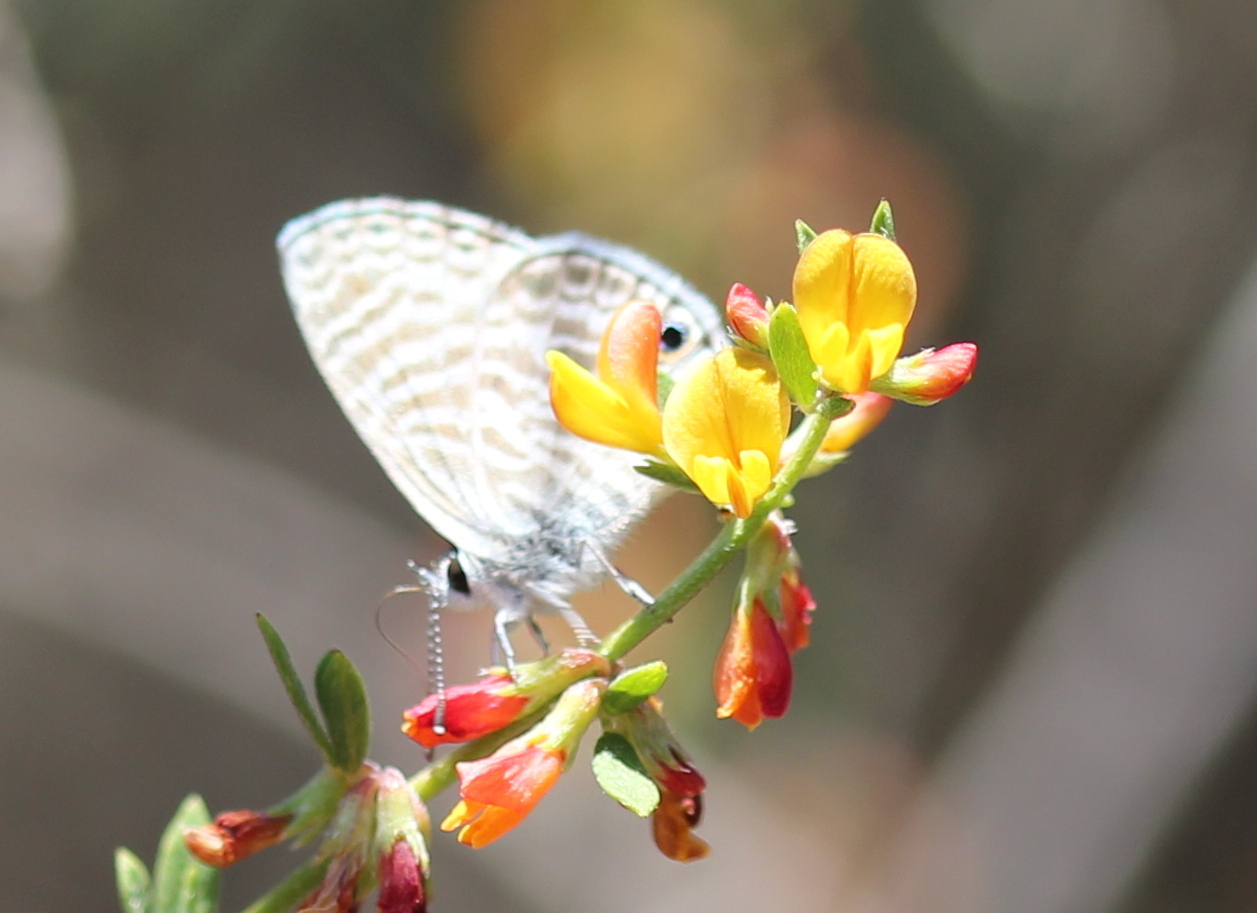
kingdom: Animalia
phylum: Arthropoda
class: Insecta
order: Lepidoptera
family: Lycaenidae
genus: Leptotes
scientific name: Leptotes marina
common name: Marine blue
